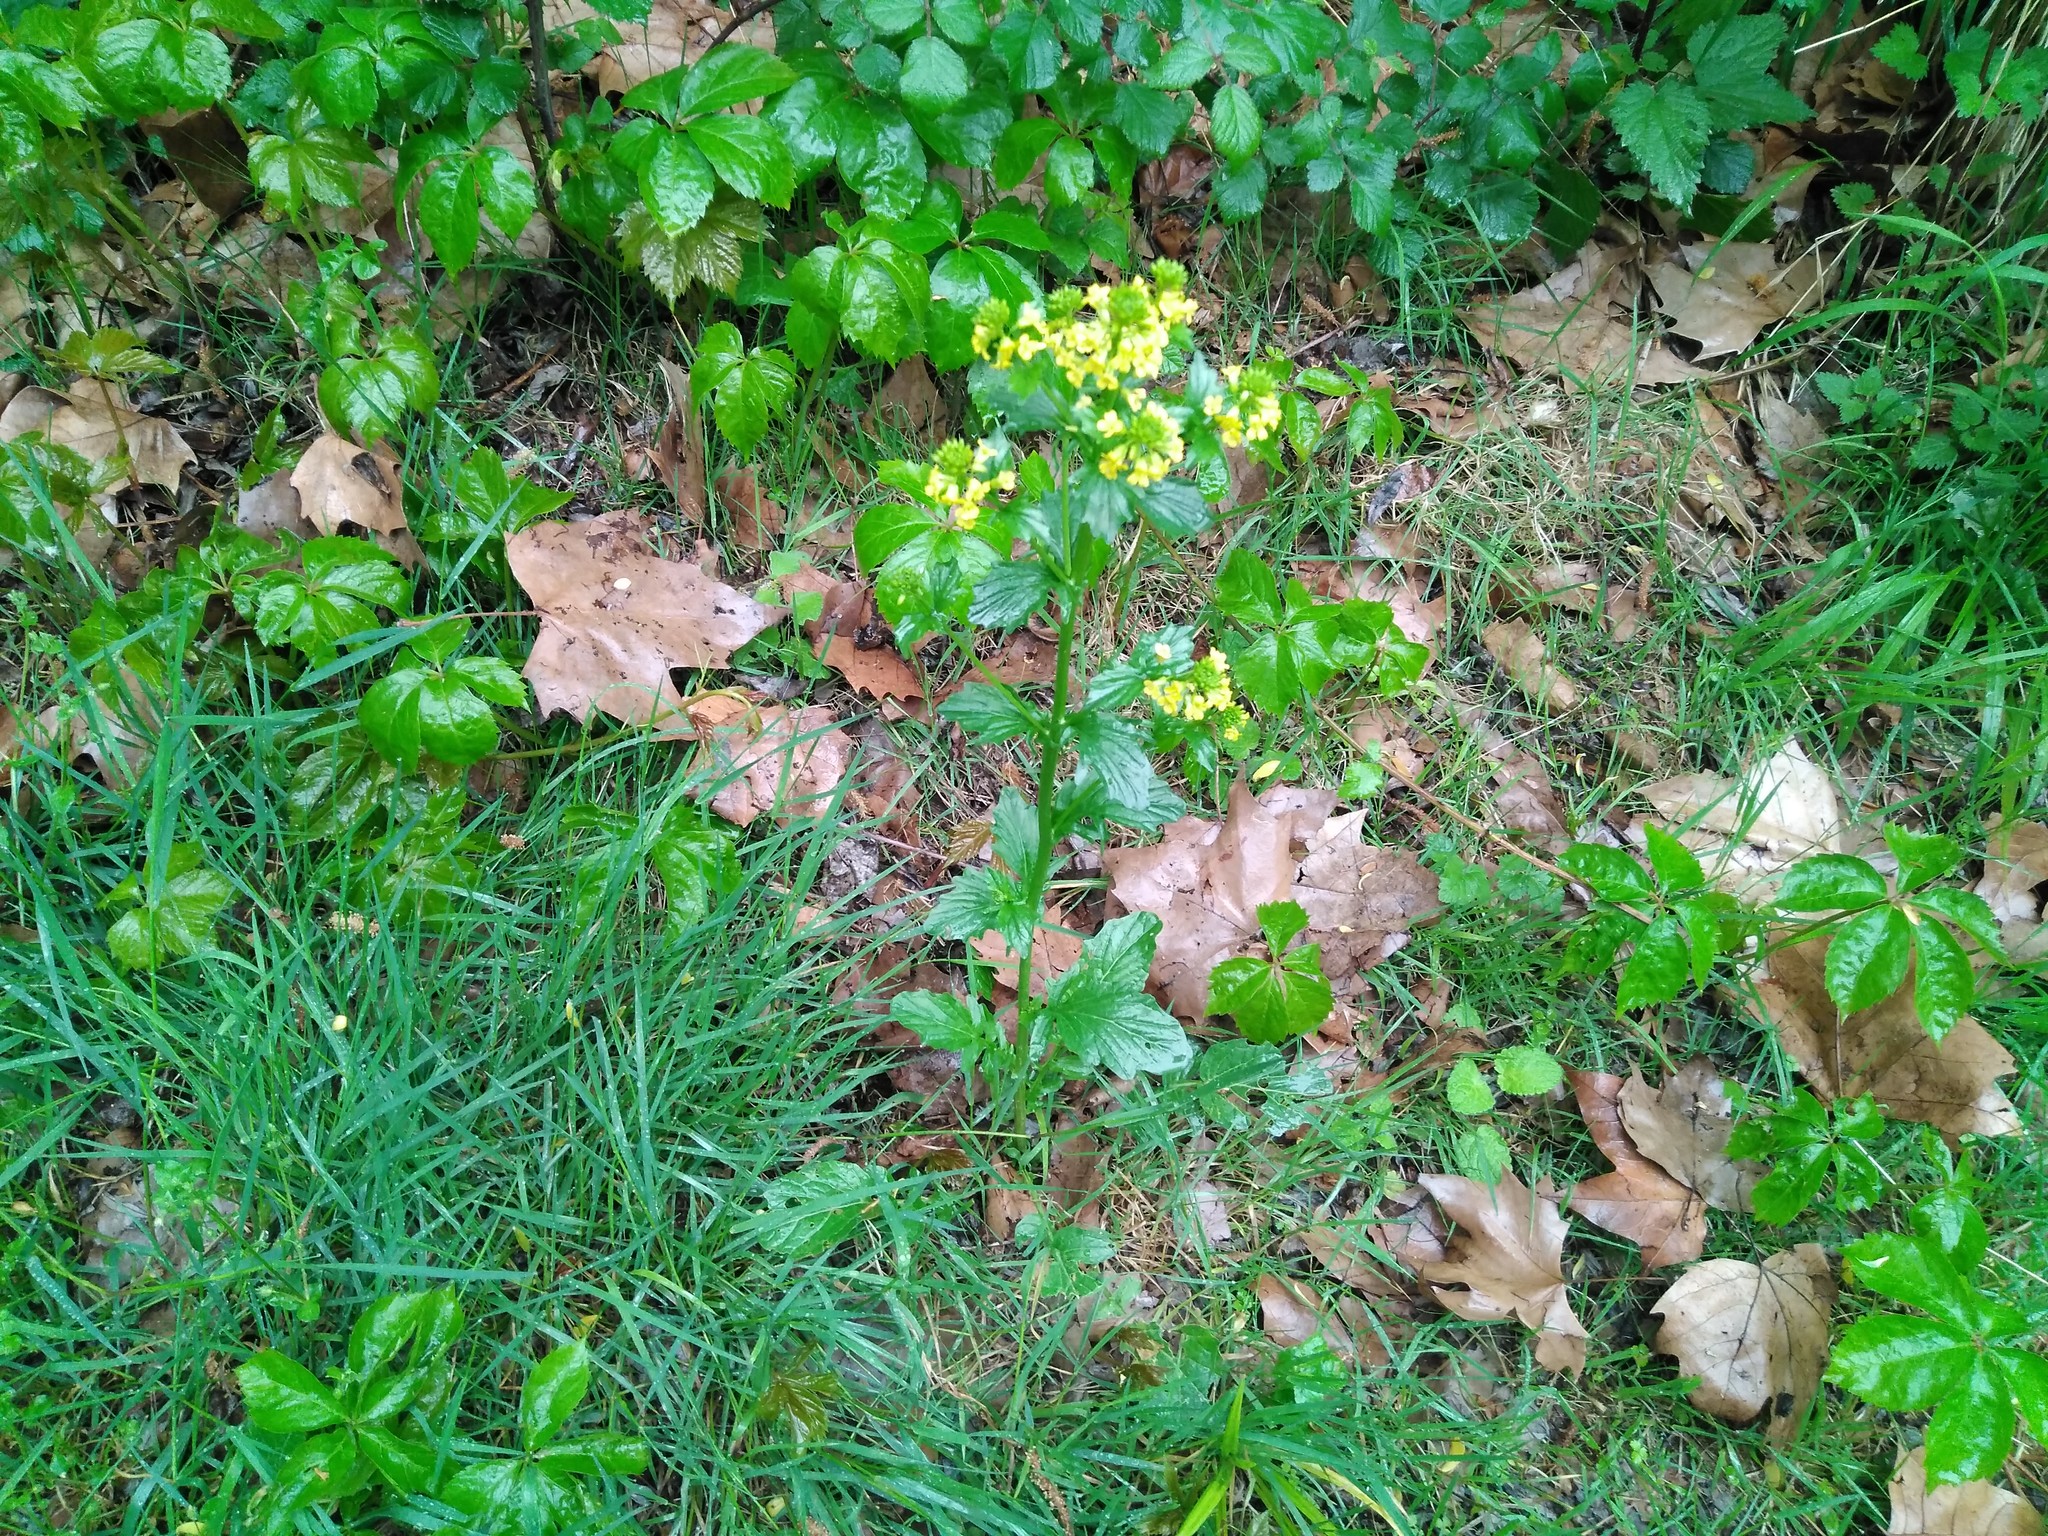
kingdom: Plantae
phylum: Tracheophyta
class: Magnoliopsida
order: Brassicales
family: Brassicaceae
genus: Barbarea
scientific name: Barbarea vulgaris
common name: Cressy-greens
